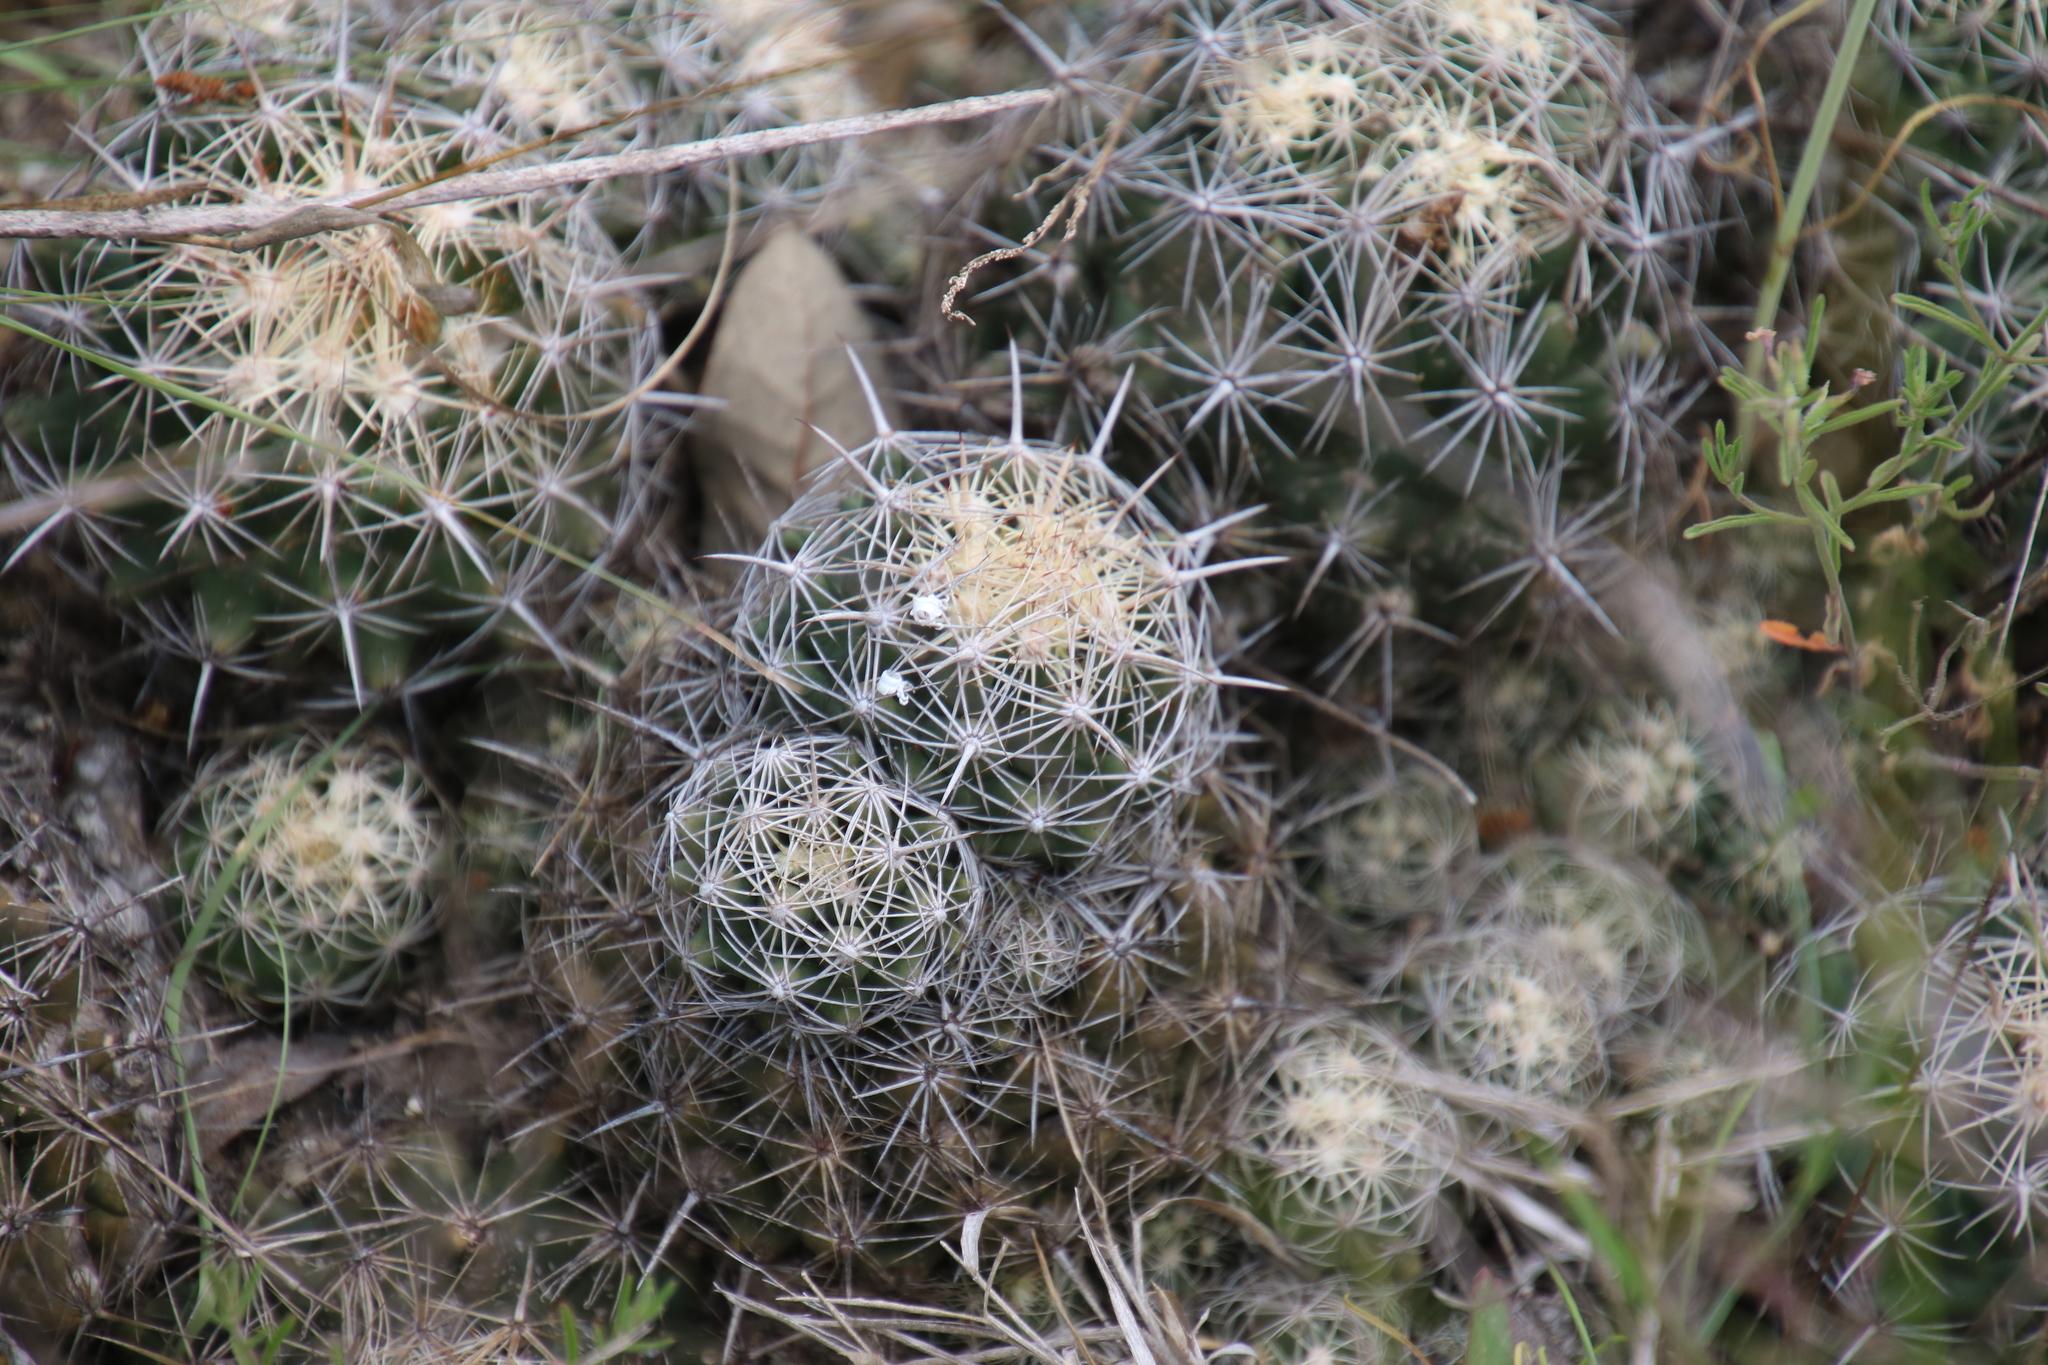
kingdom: Plantae
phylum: Tracheophyta
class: Magnoliopsida
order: Caryophyllales
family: Cactaceae
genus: Coryphantha
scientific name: Coryphantha sulcata
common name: Finger cactus
